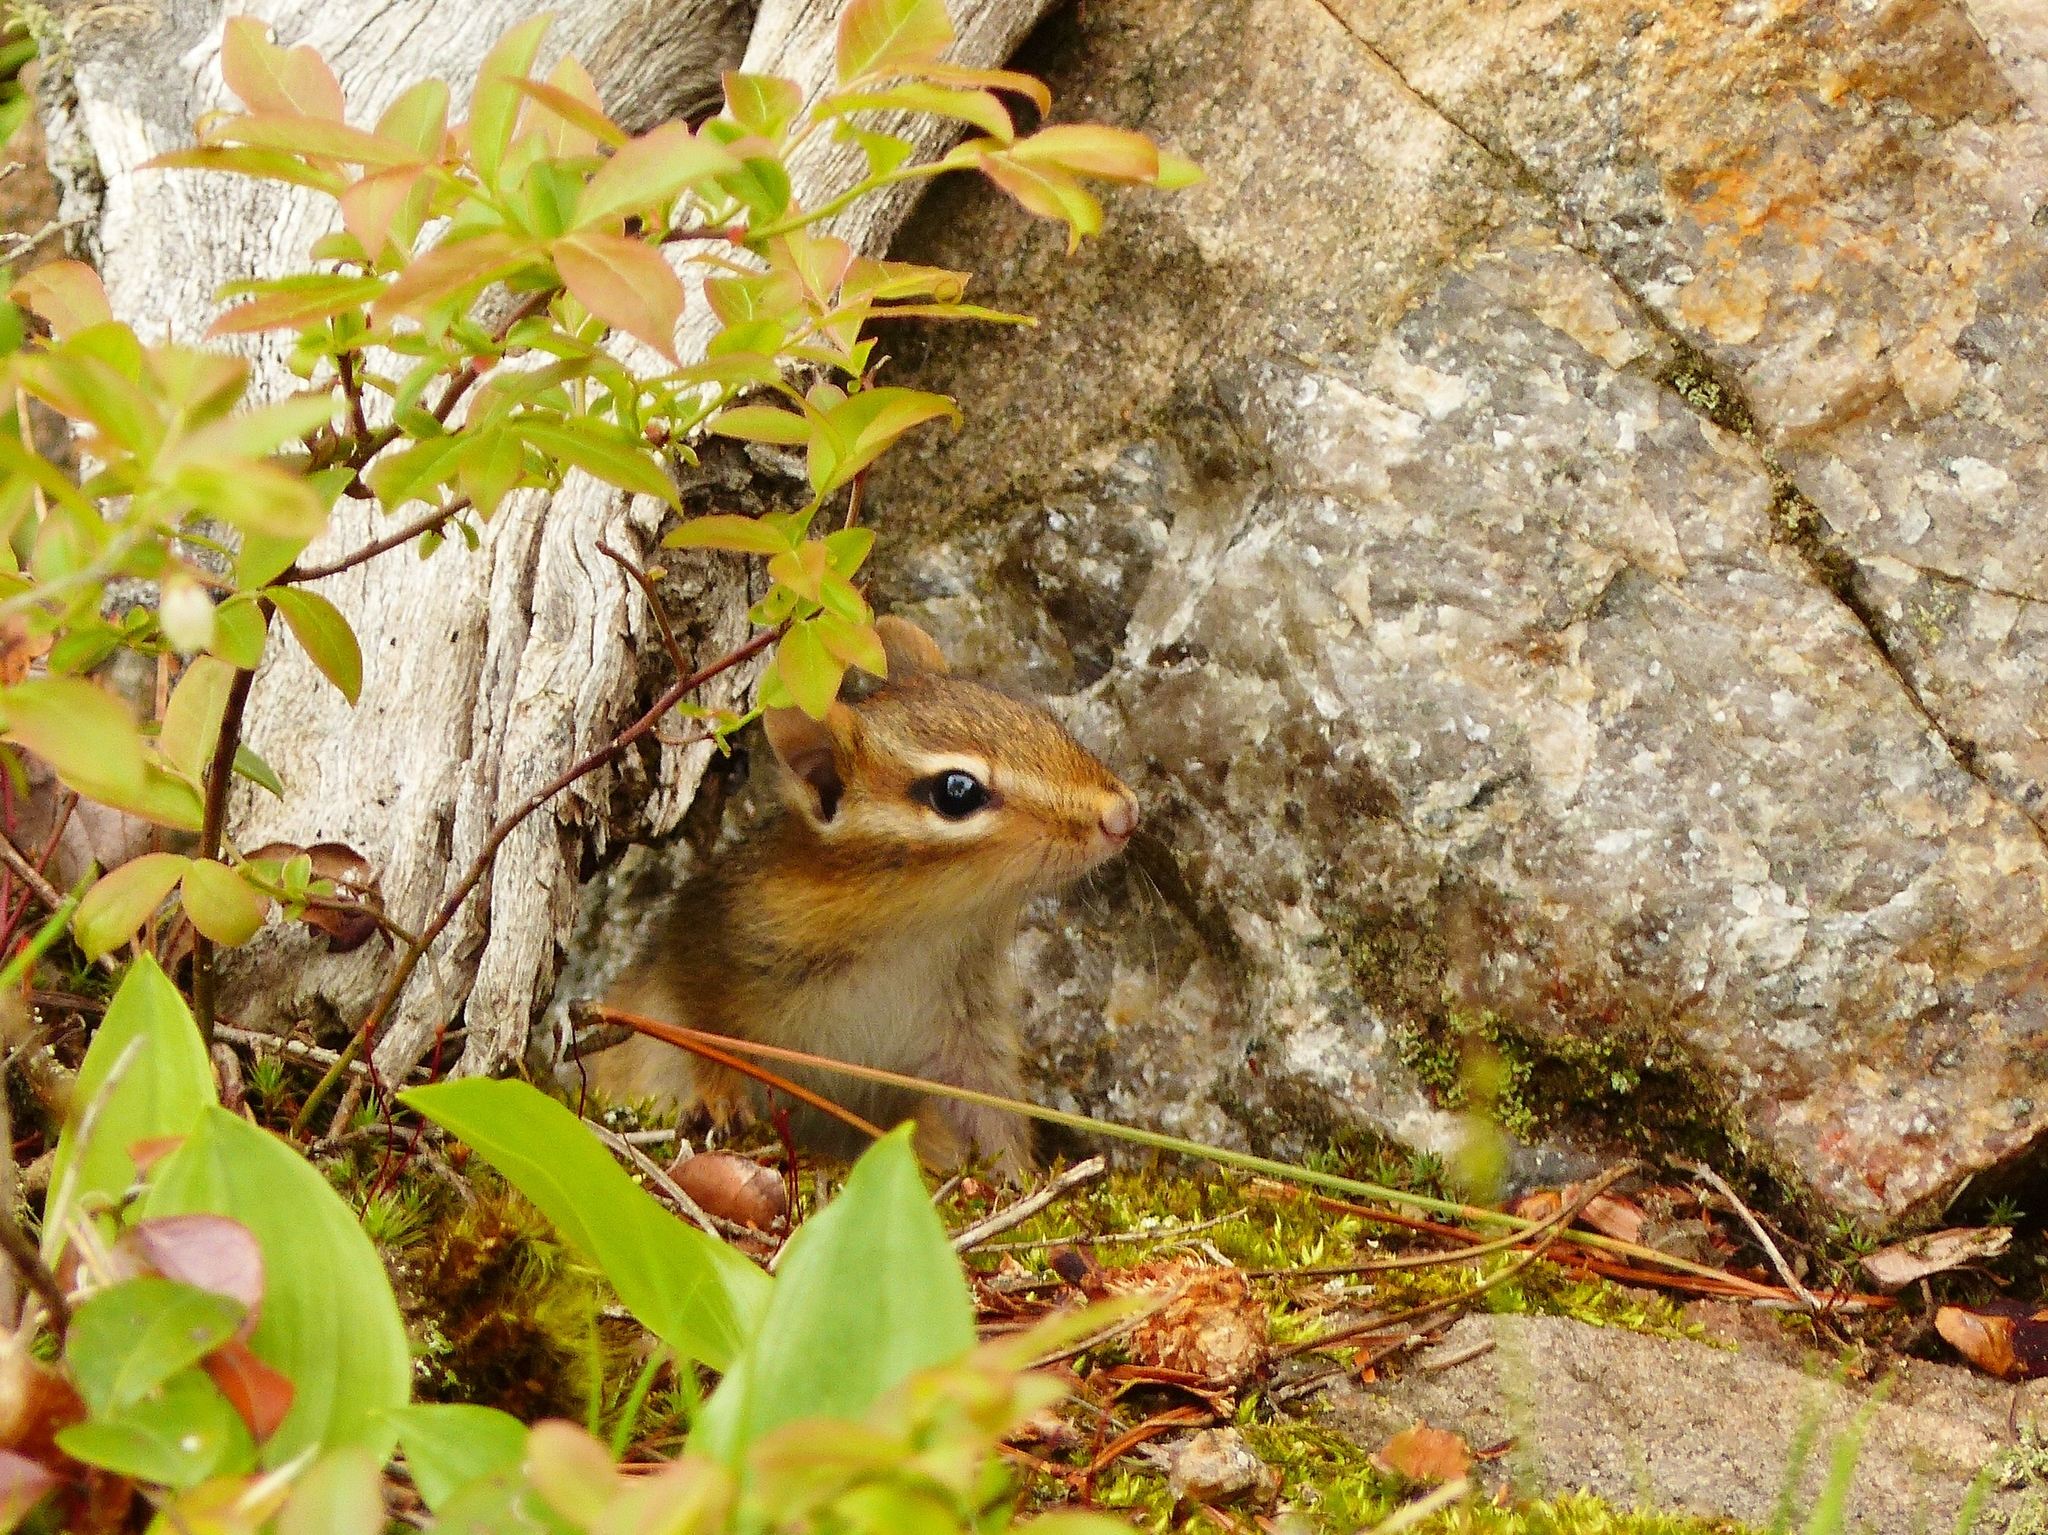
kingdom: Animalia
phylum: Chordata
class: Mammalia
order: Rodentia
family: Sciuridae
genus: Tamias
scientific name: Tamias striatus
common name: Eastern chipmunk
